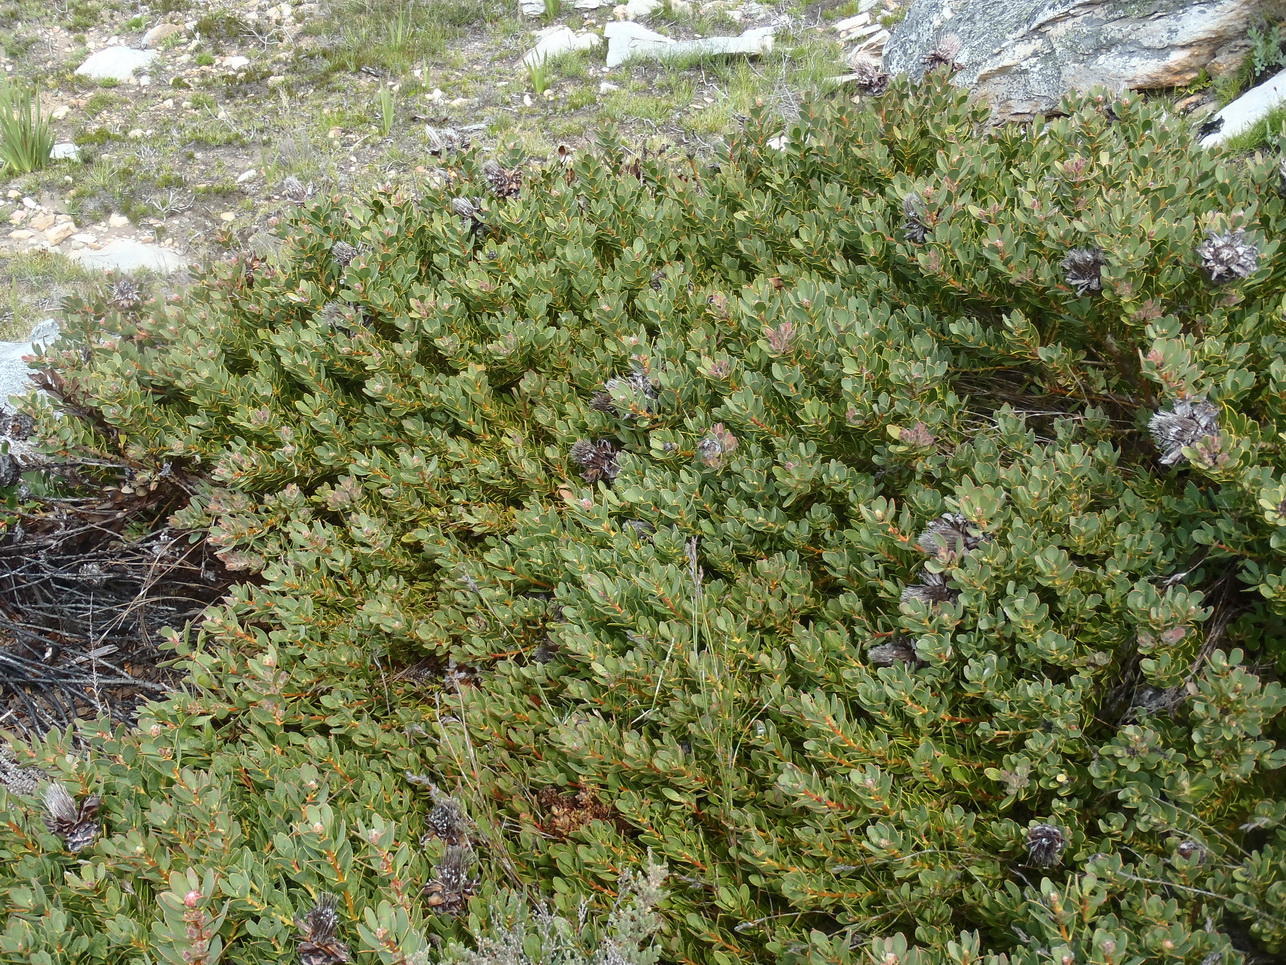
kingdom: Plantae
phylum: Tracheophyta
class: Magnoliopsida
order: Proteales
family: Proteaceae
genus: Protea
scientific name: Protea venusta
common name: Cascade sugarbush
